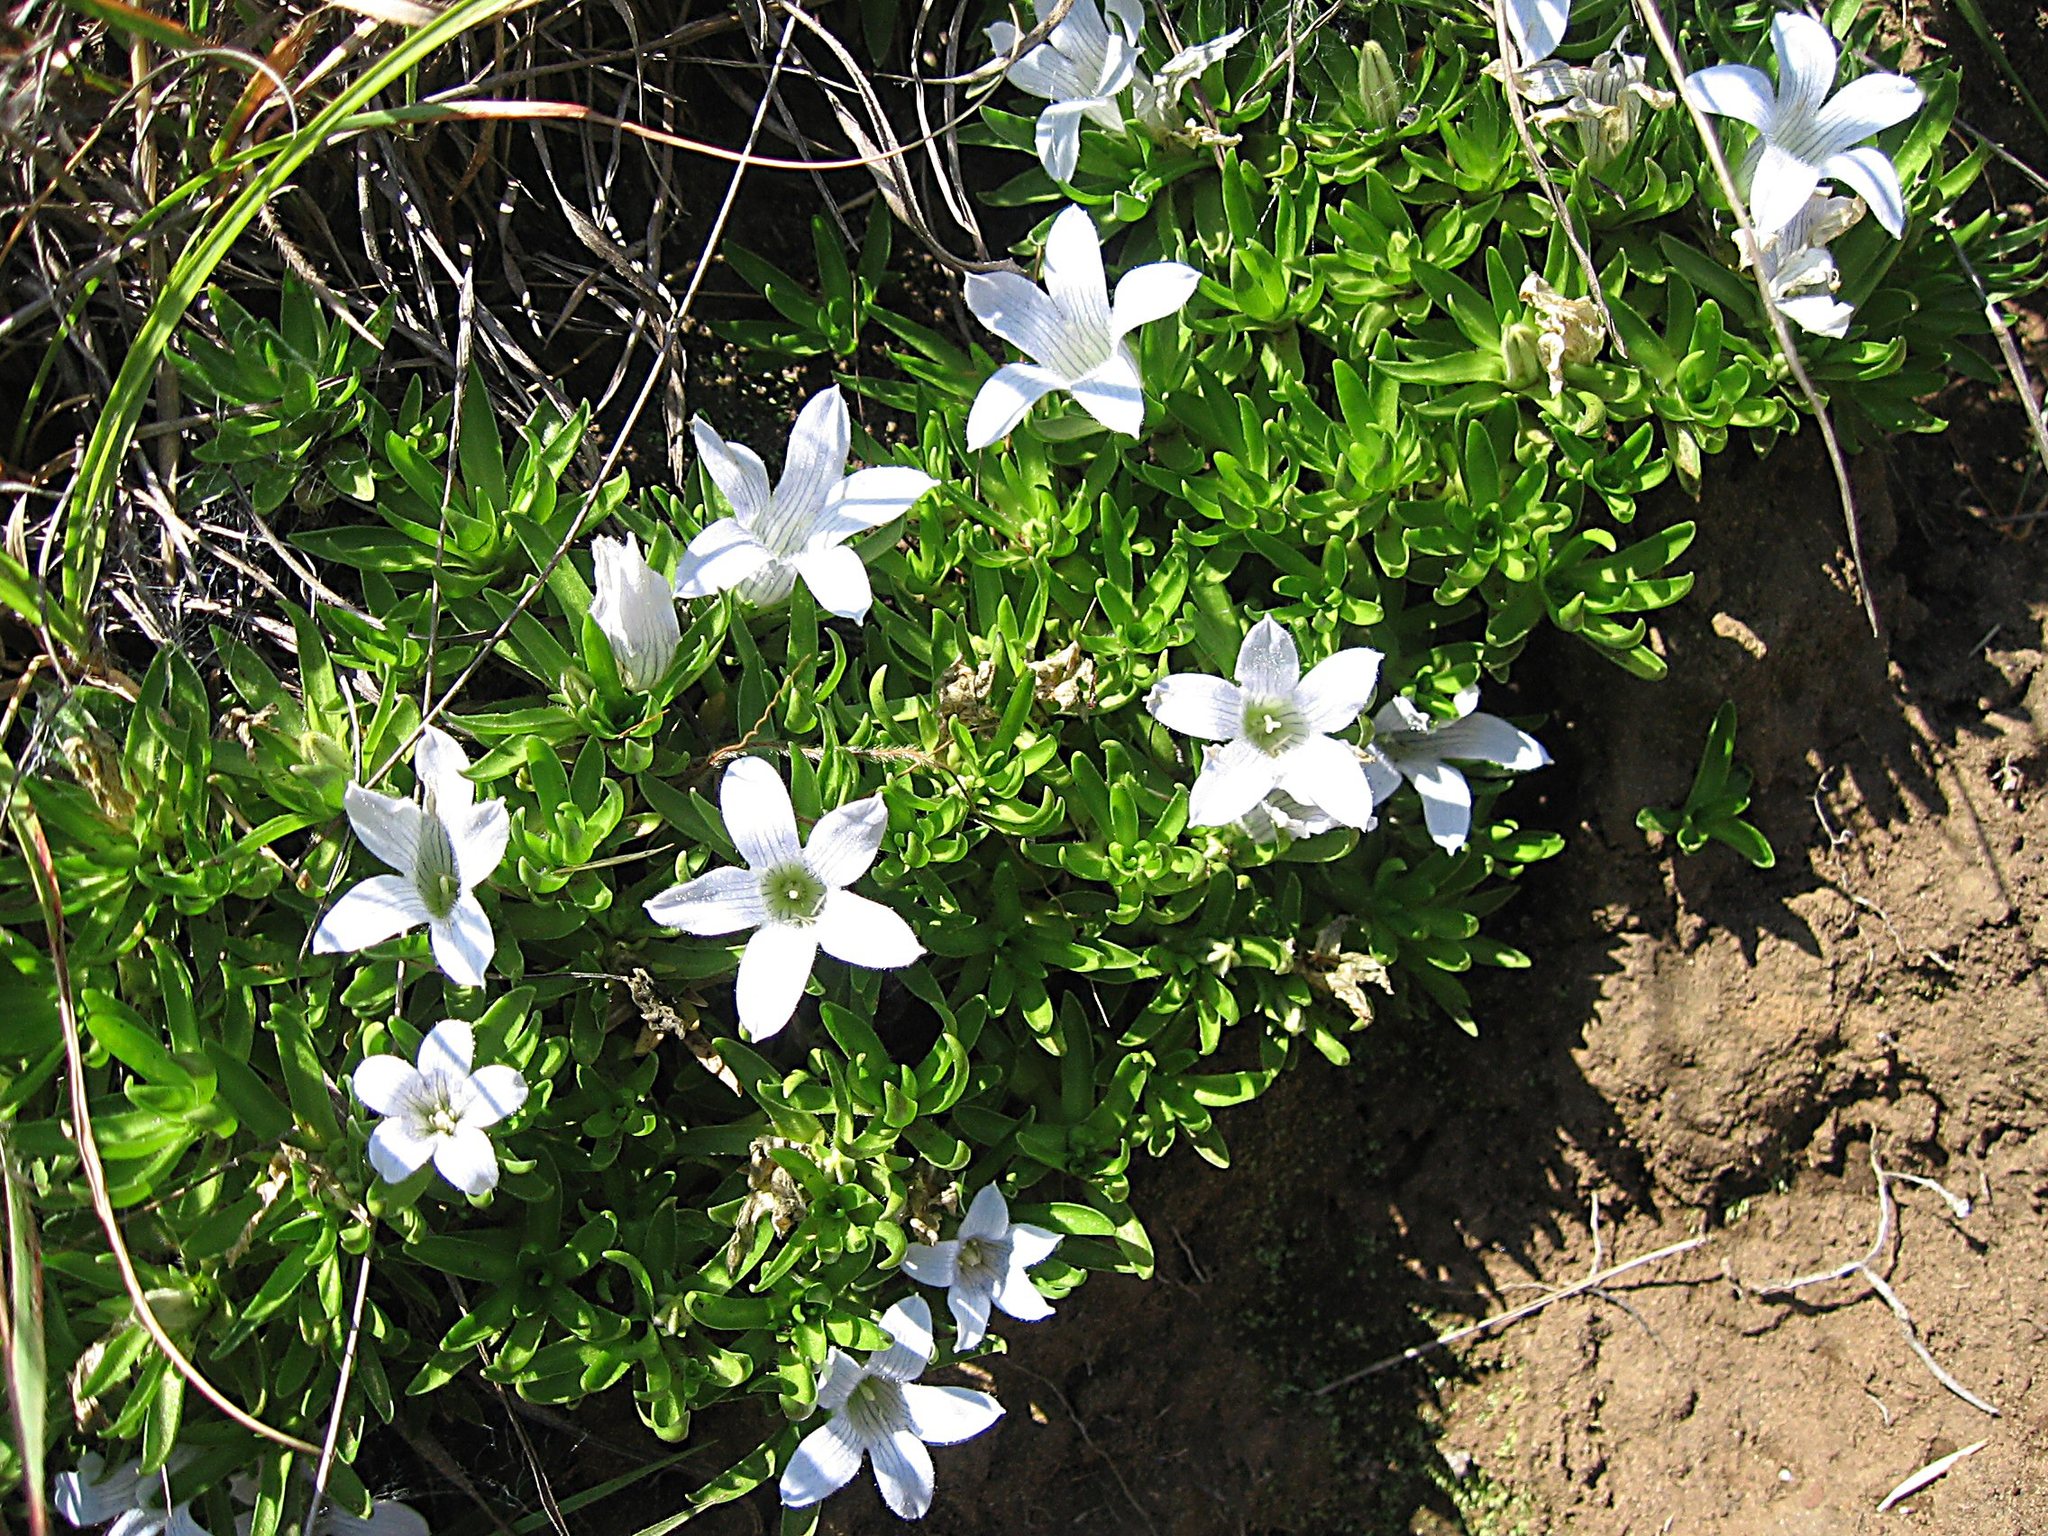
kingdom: Plantae
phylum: Tracheophyta
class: Magnoliopsida
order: Asterales
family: Campanulaceae
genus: Craterocapsa
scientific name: Craterocapsa tarsodes
